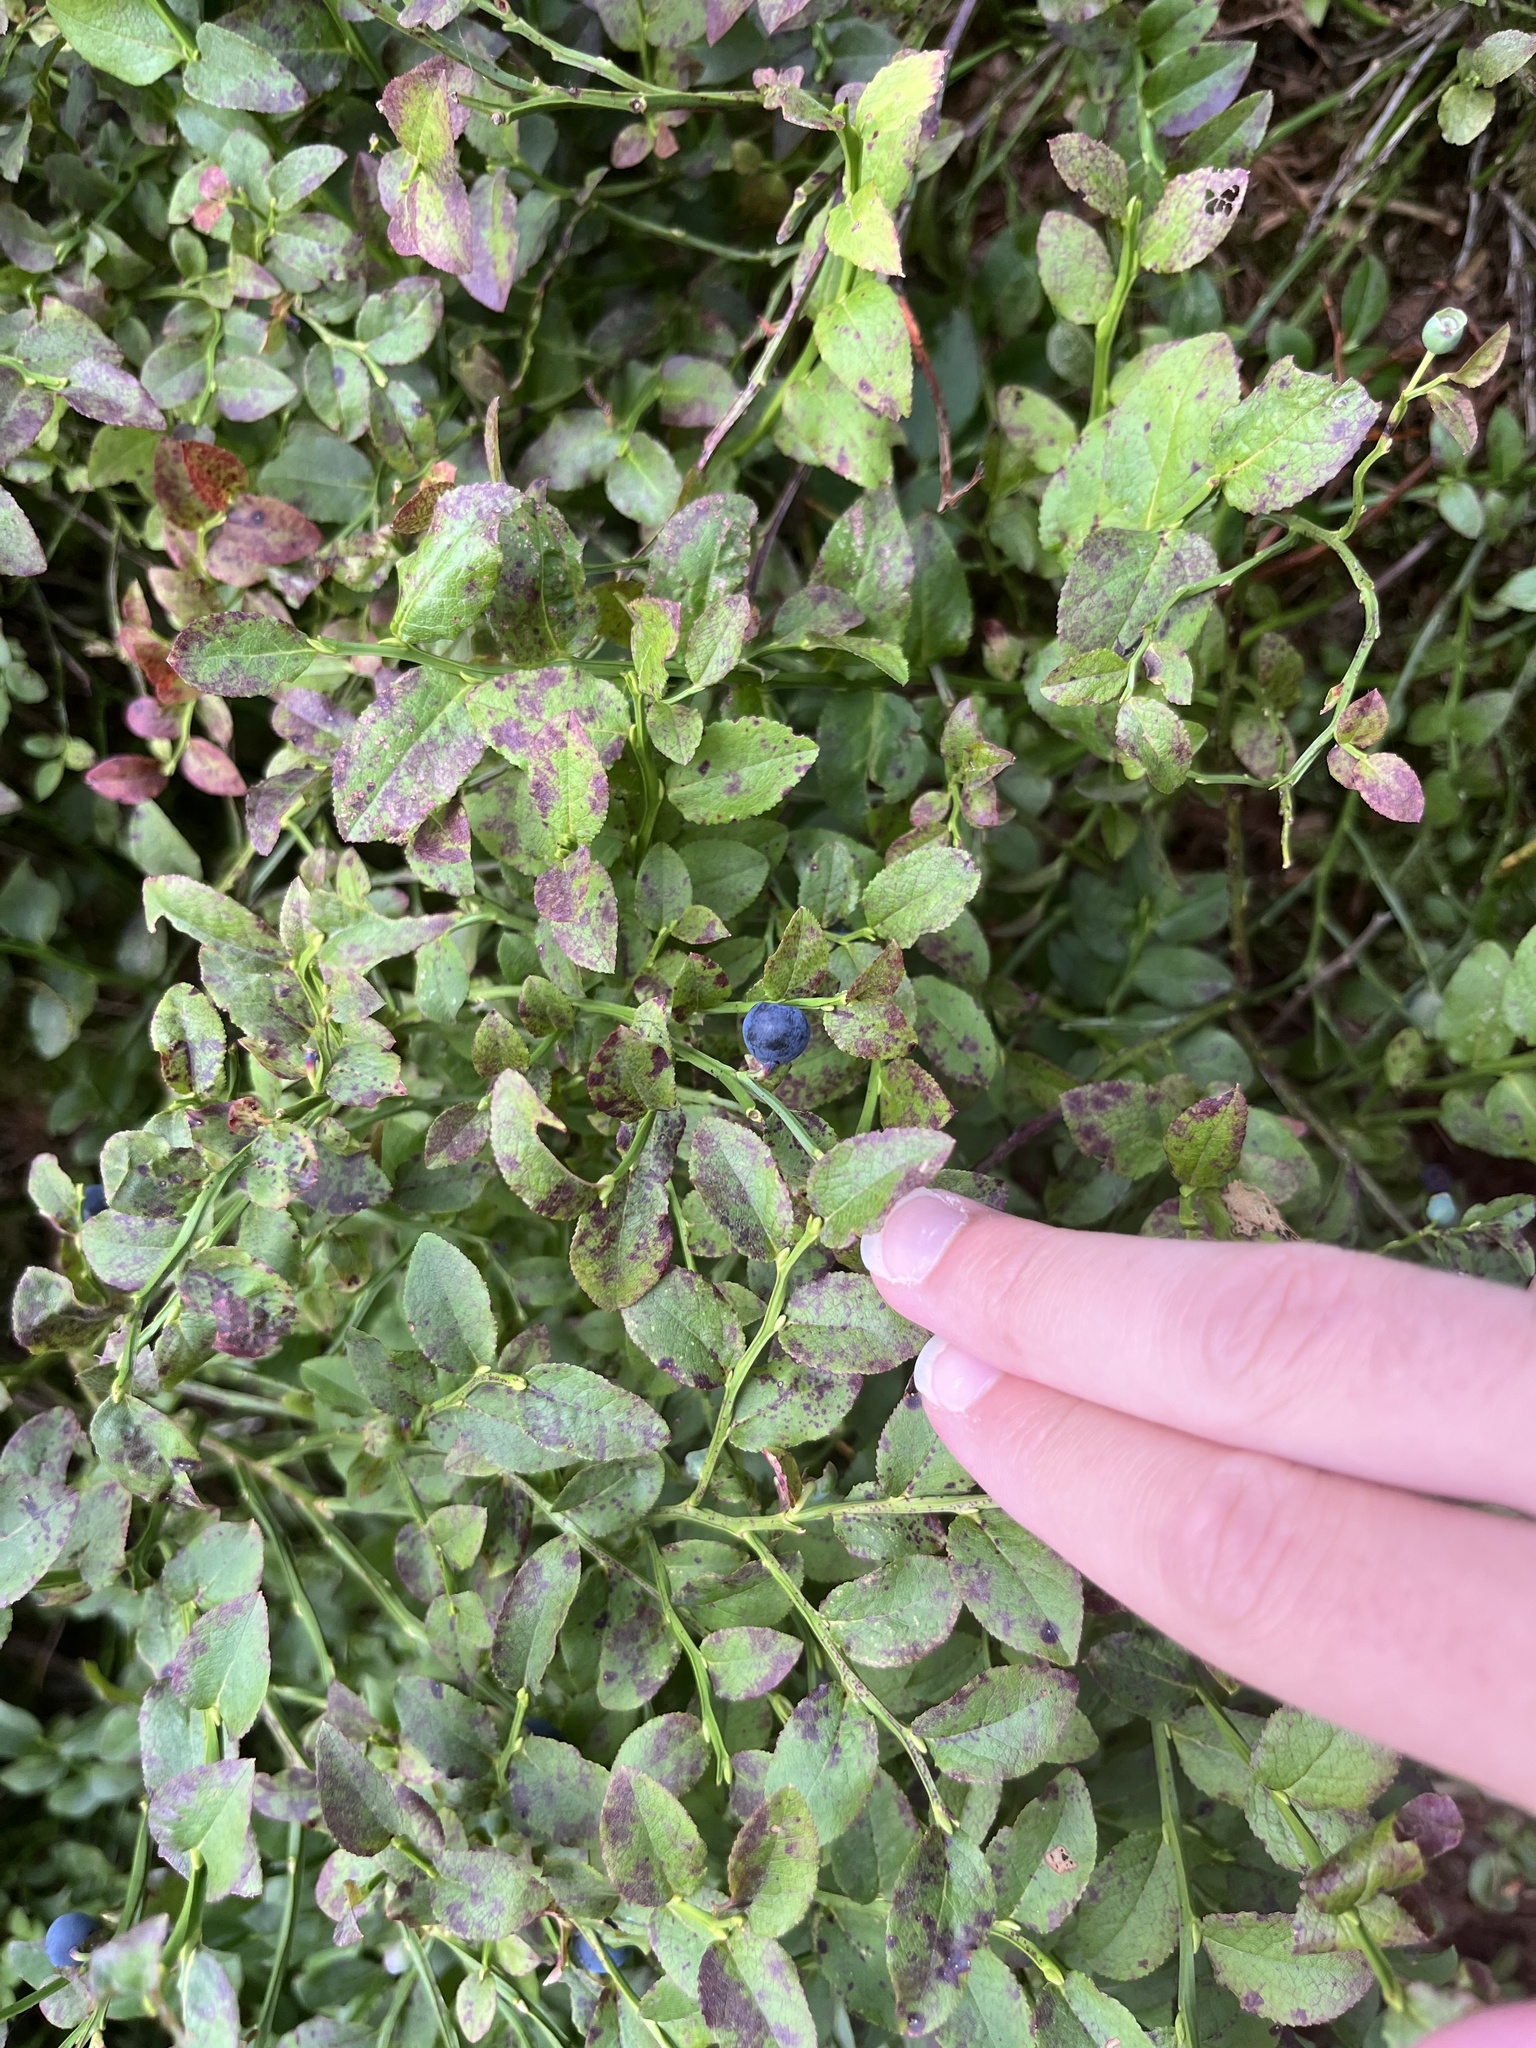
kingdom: Plantae
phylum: Tracheophyta
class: Magnoliopsida
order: Ericales
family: Ericaceae
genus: Vaccinium
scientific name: Vaccinium myrtillus
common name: Bilberry
